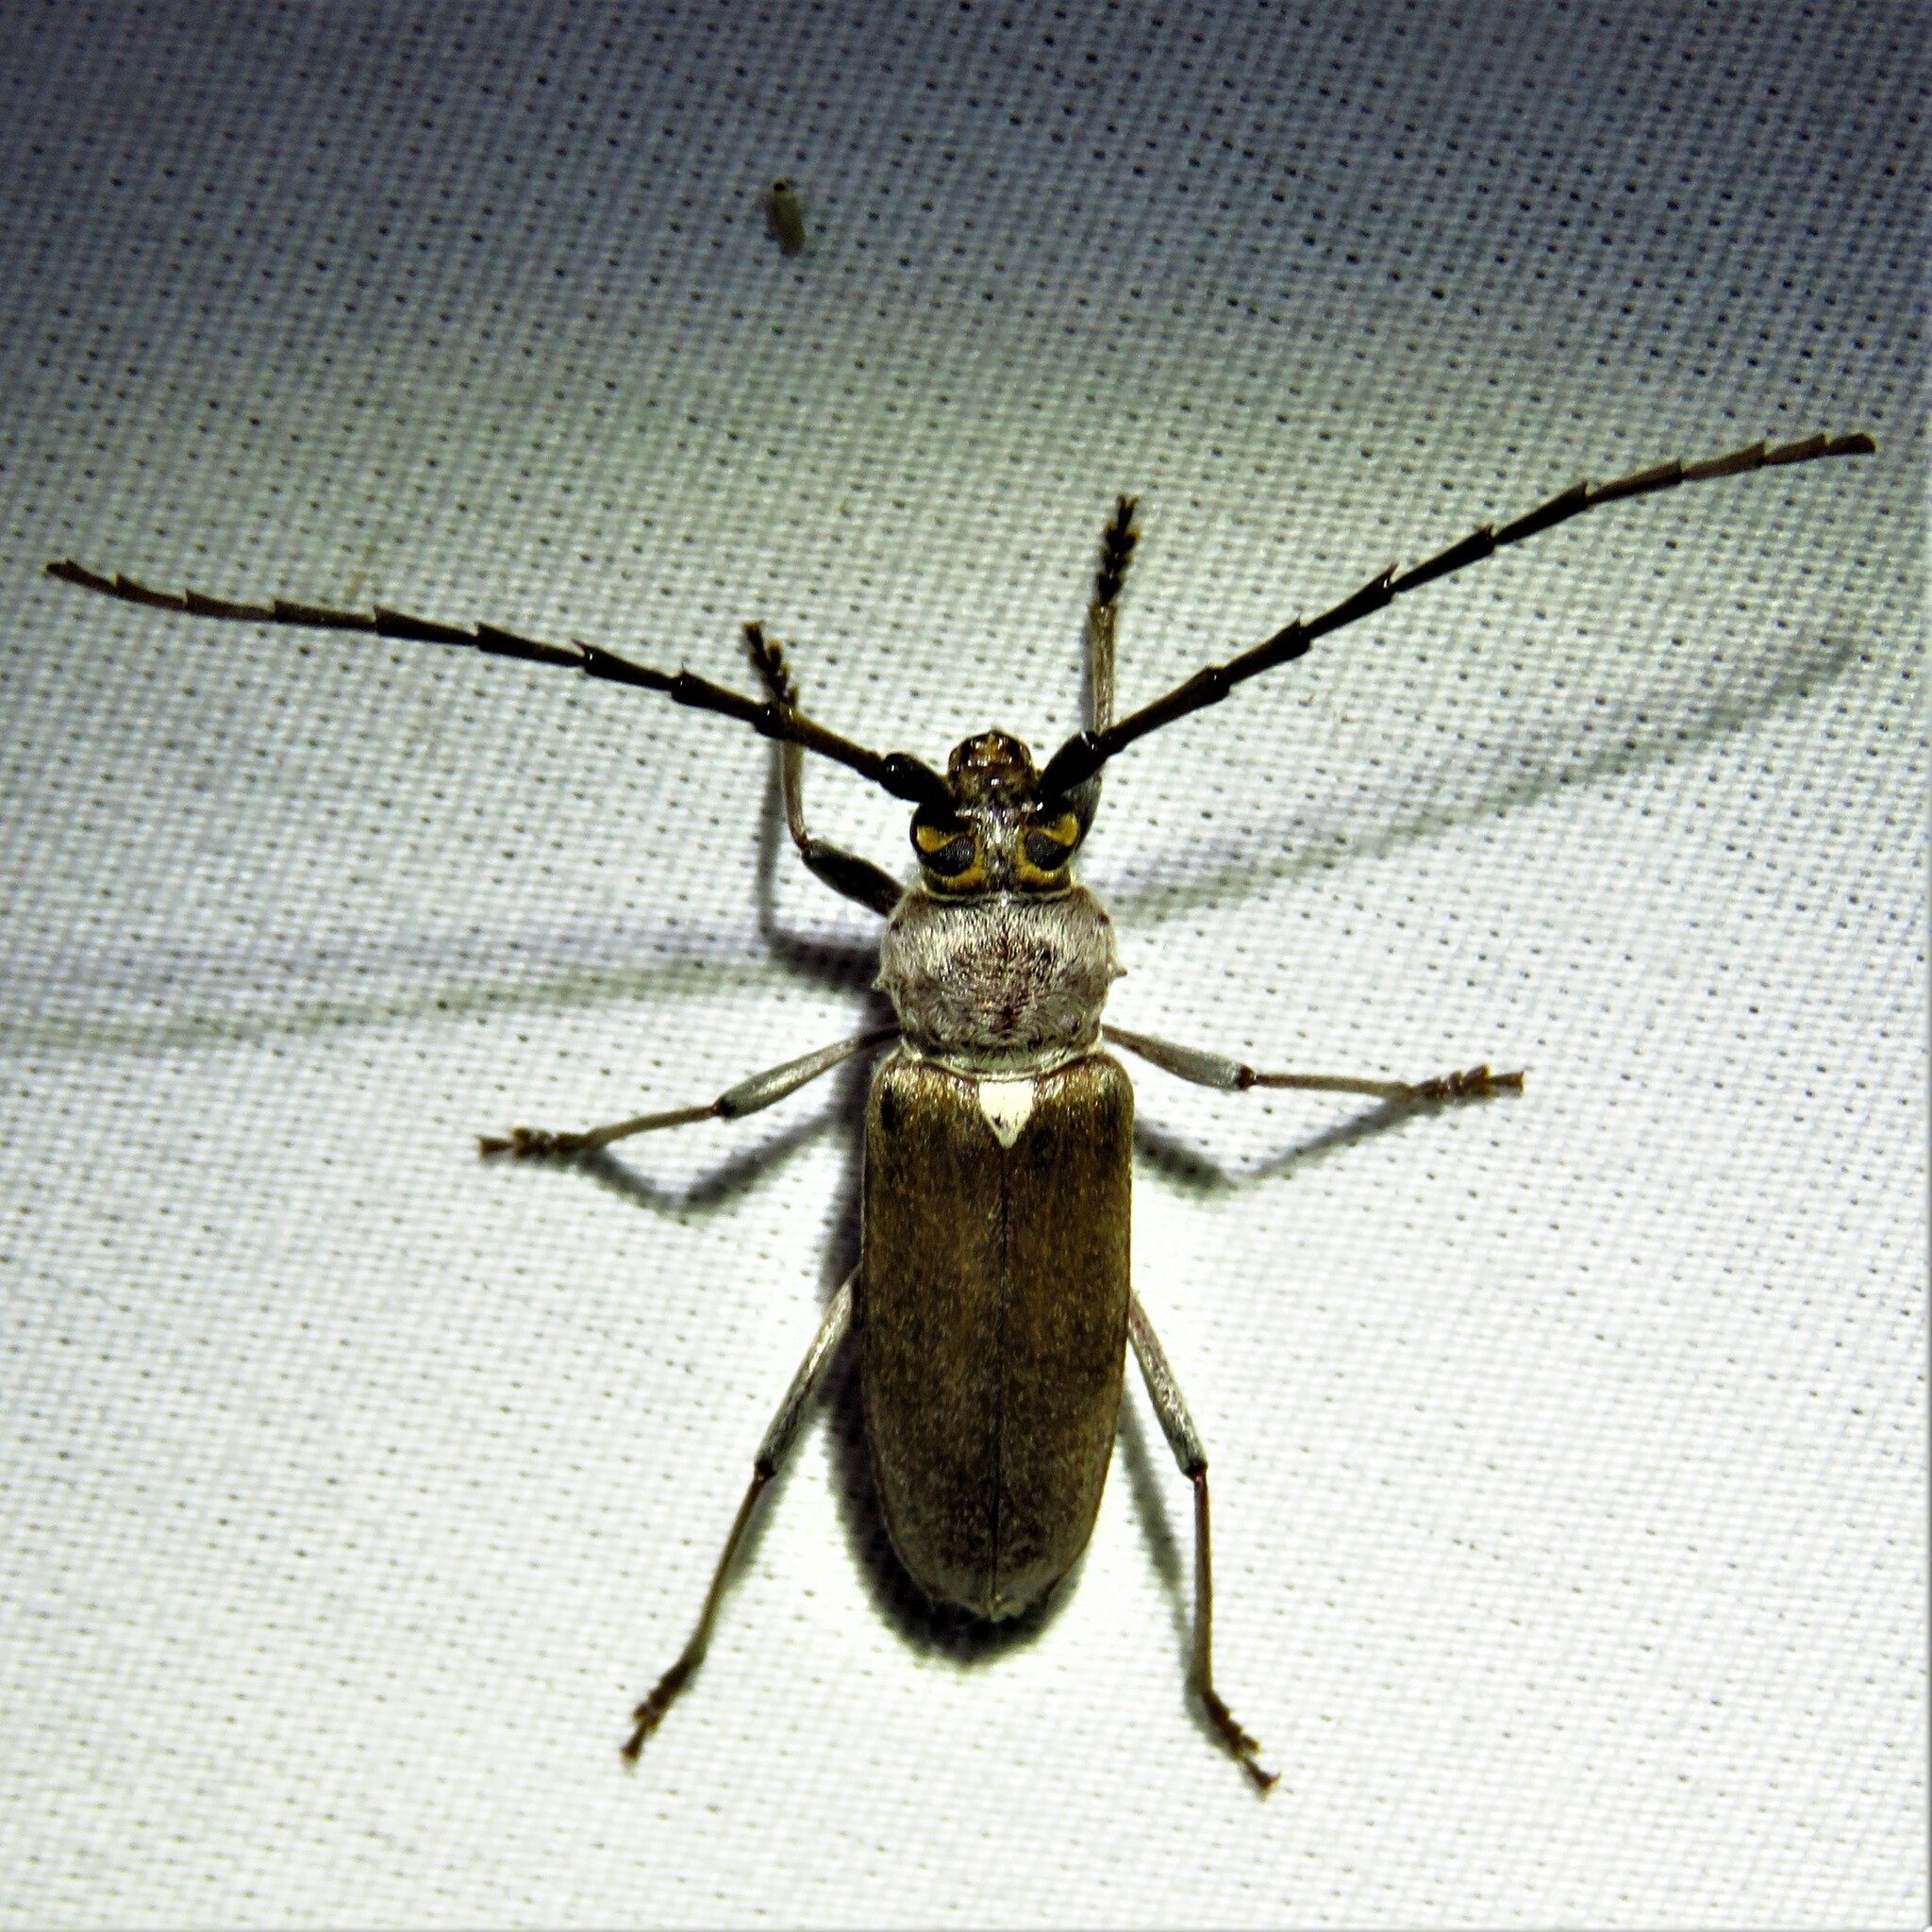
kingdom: Animalia
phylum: Arthropoda
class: Insecta
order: Coleoptera
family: Cerambycidae
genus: Gnaphalodes
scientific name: Gnaphalodes trachyderoides
